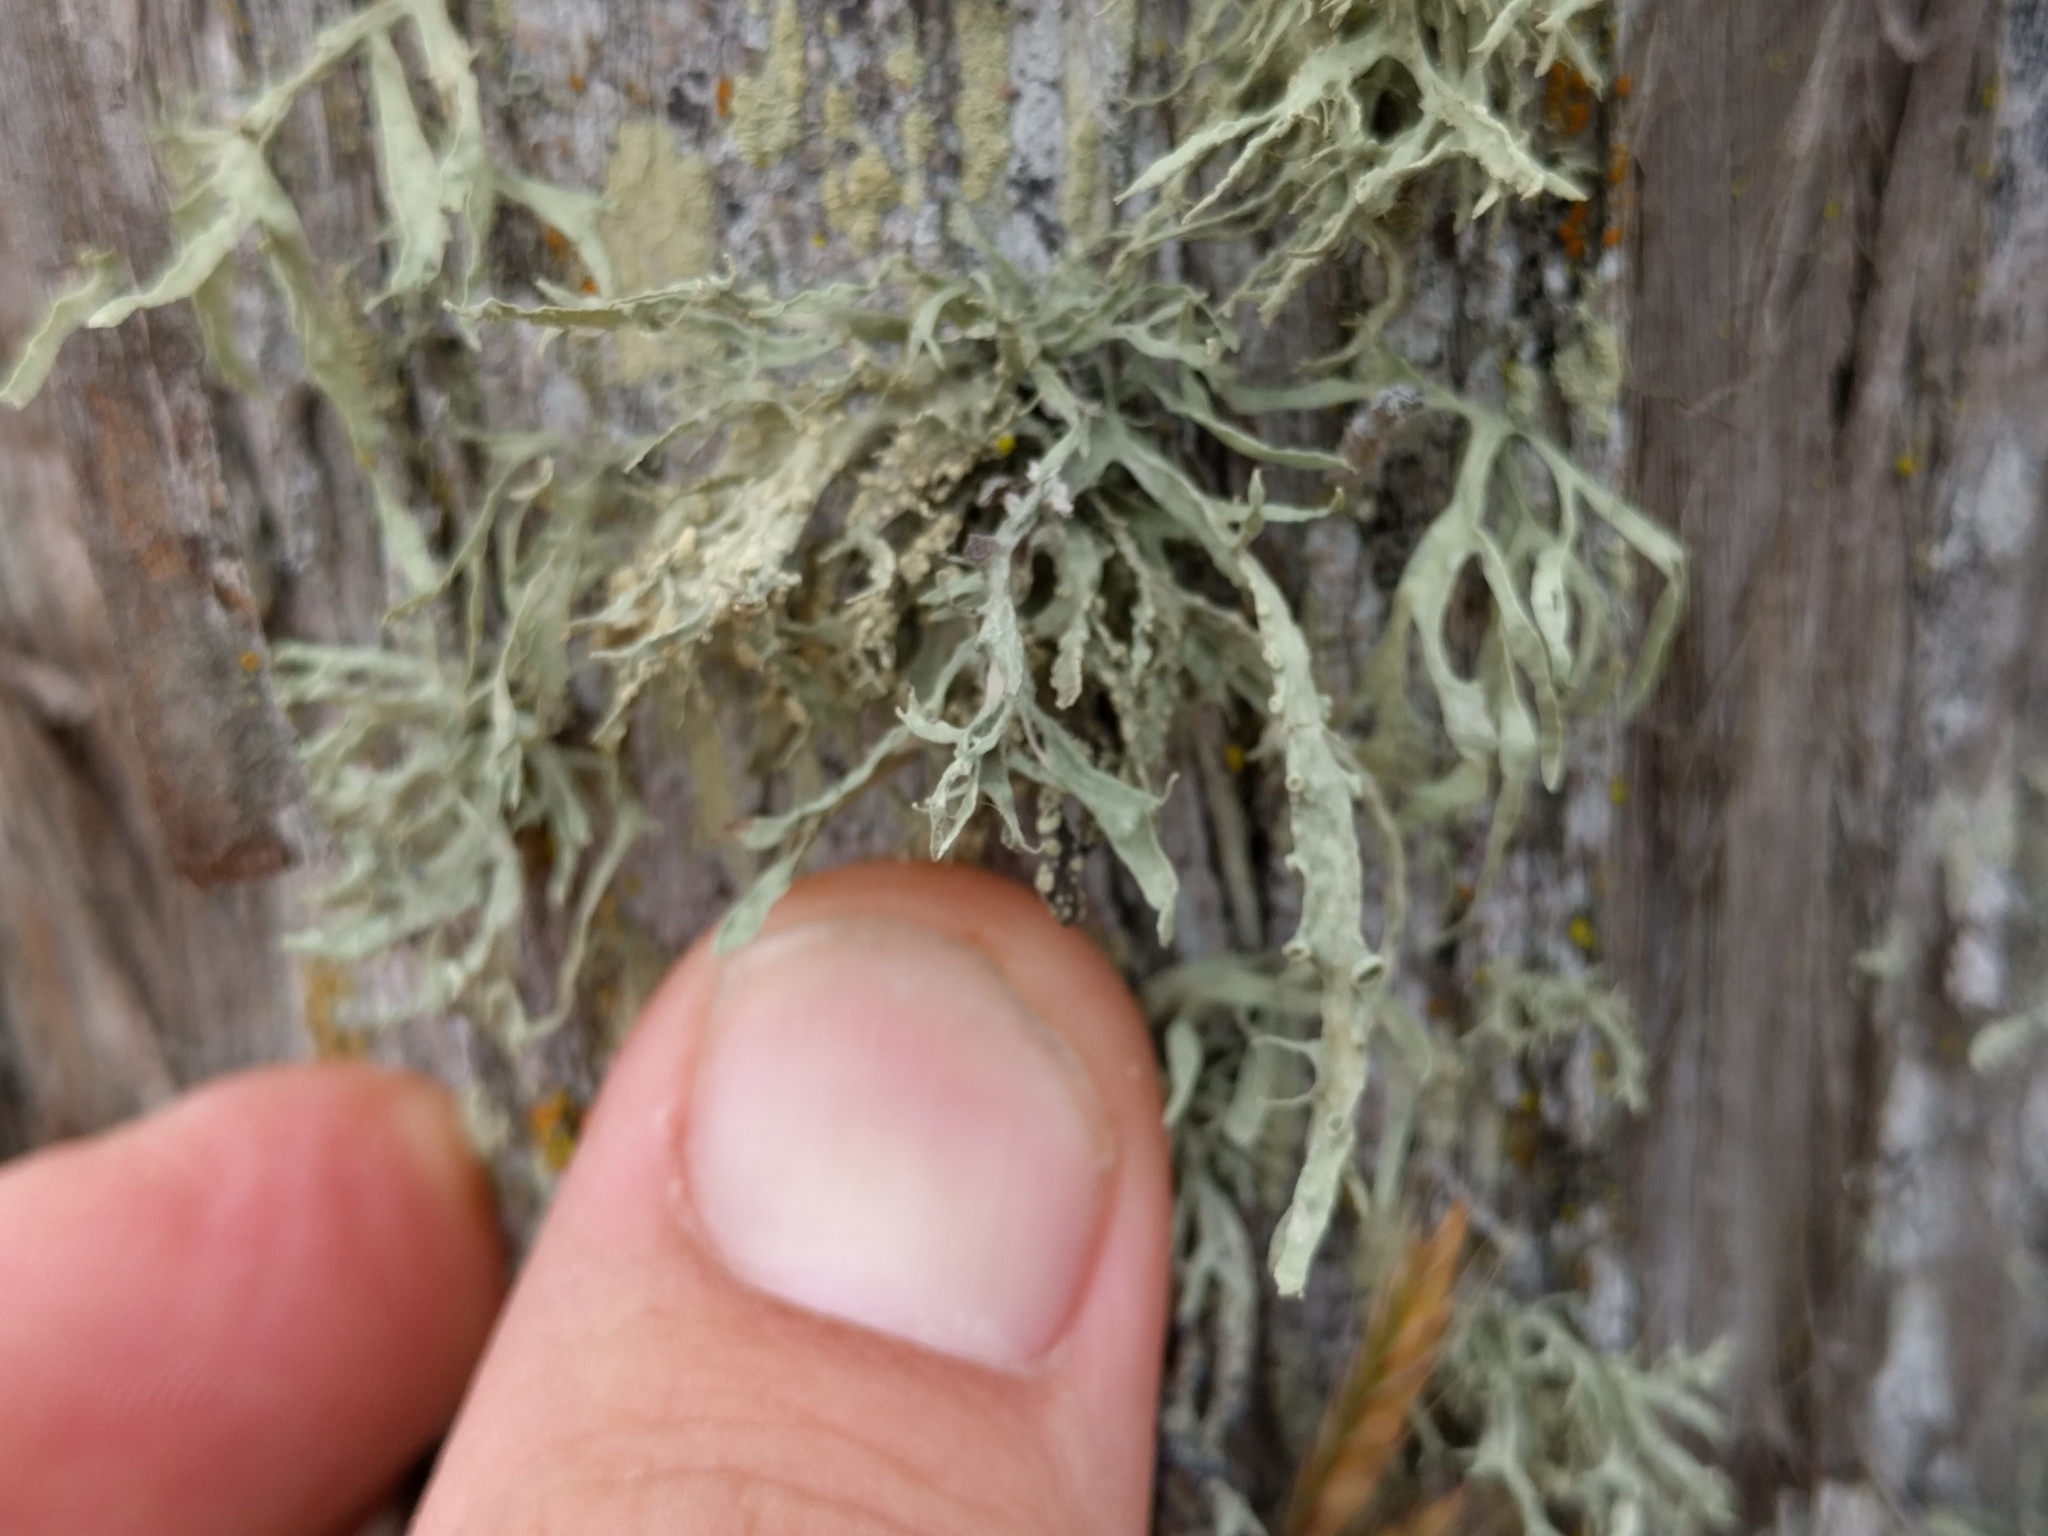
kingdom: Fungi
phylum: Ascomycota
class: Lecanoromycetes
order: Lecanorales
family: Ramalinaceae
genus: Ramalina
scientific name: Ramalina leptocarpha
